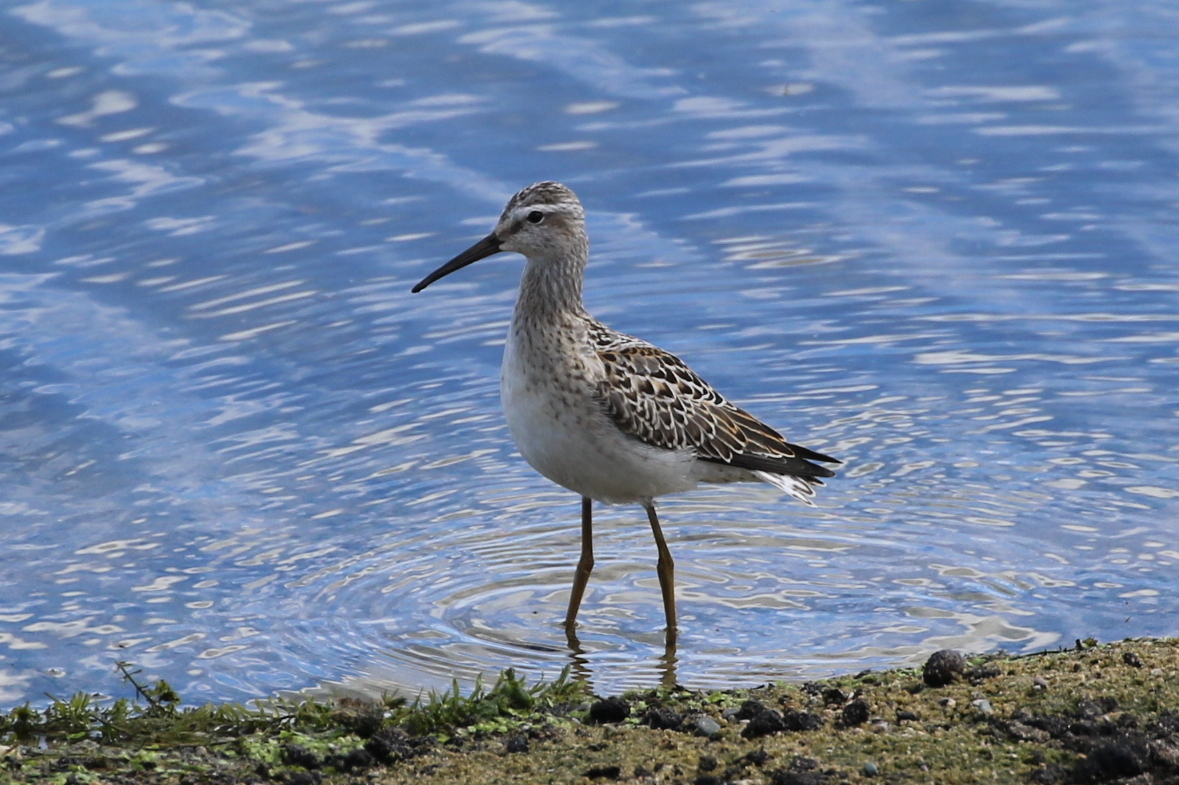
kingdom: Animalia
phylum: Chordata
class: Aves
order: Charadriiformes
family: Scolopacidae
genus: Calidris
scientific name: Calidris himantopus
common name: Stilt sandpiper
